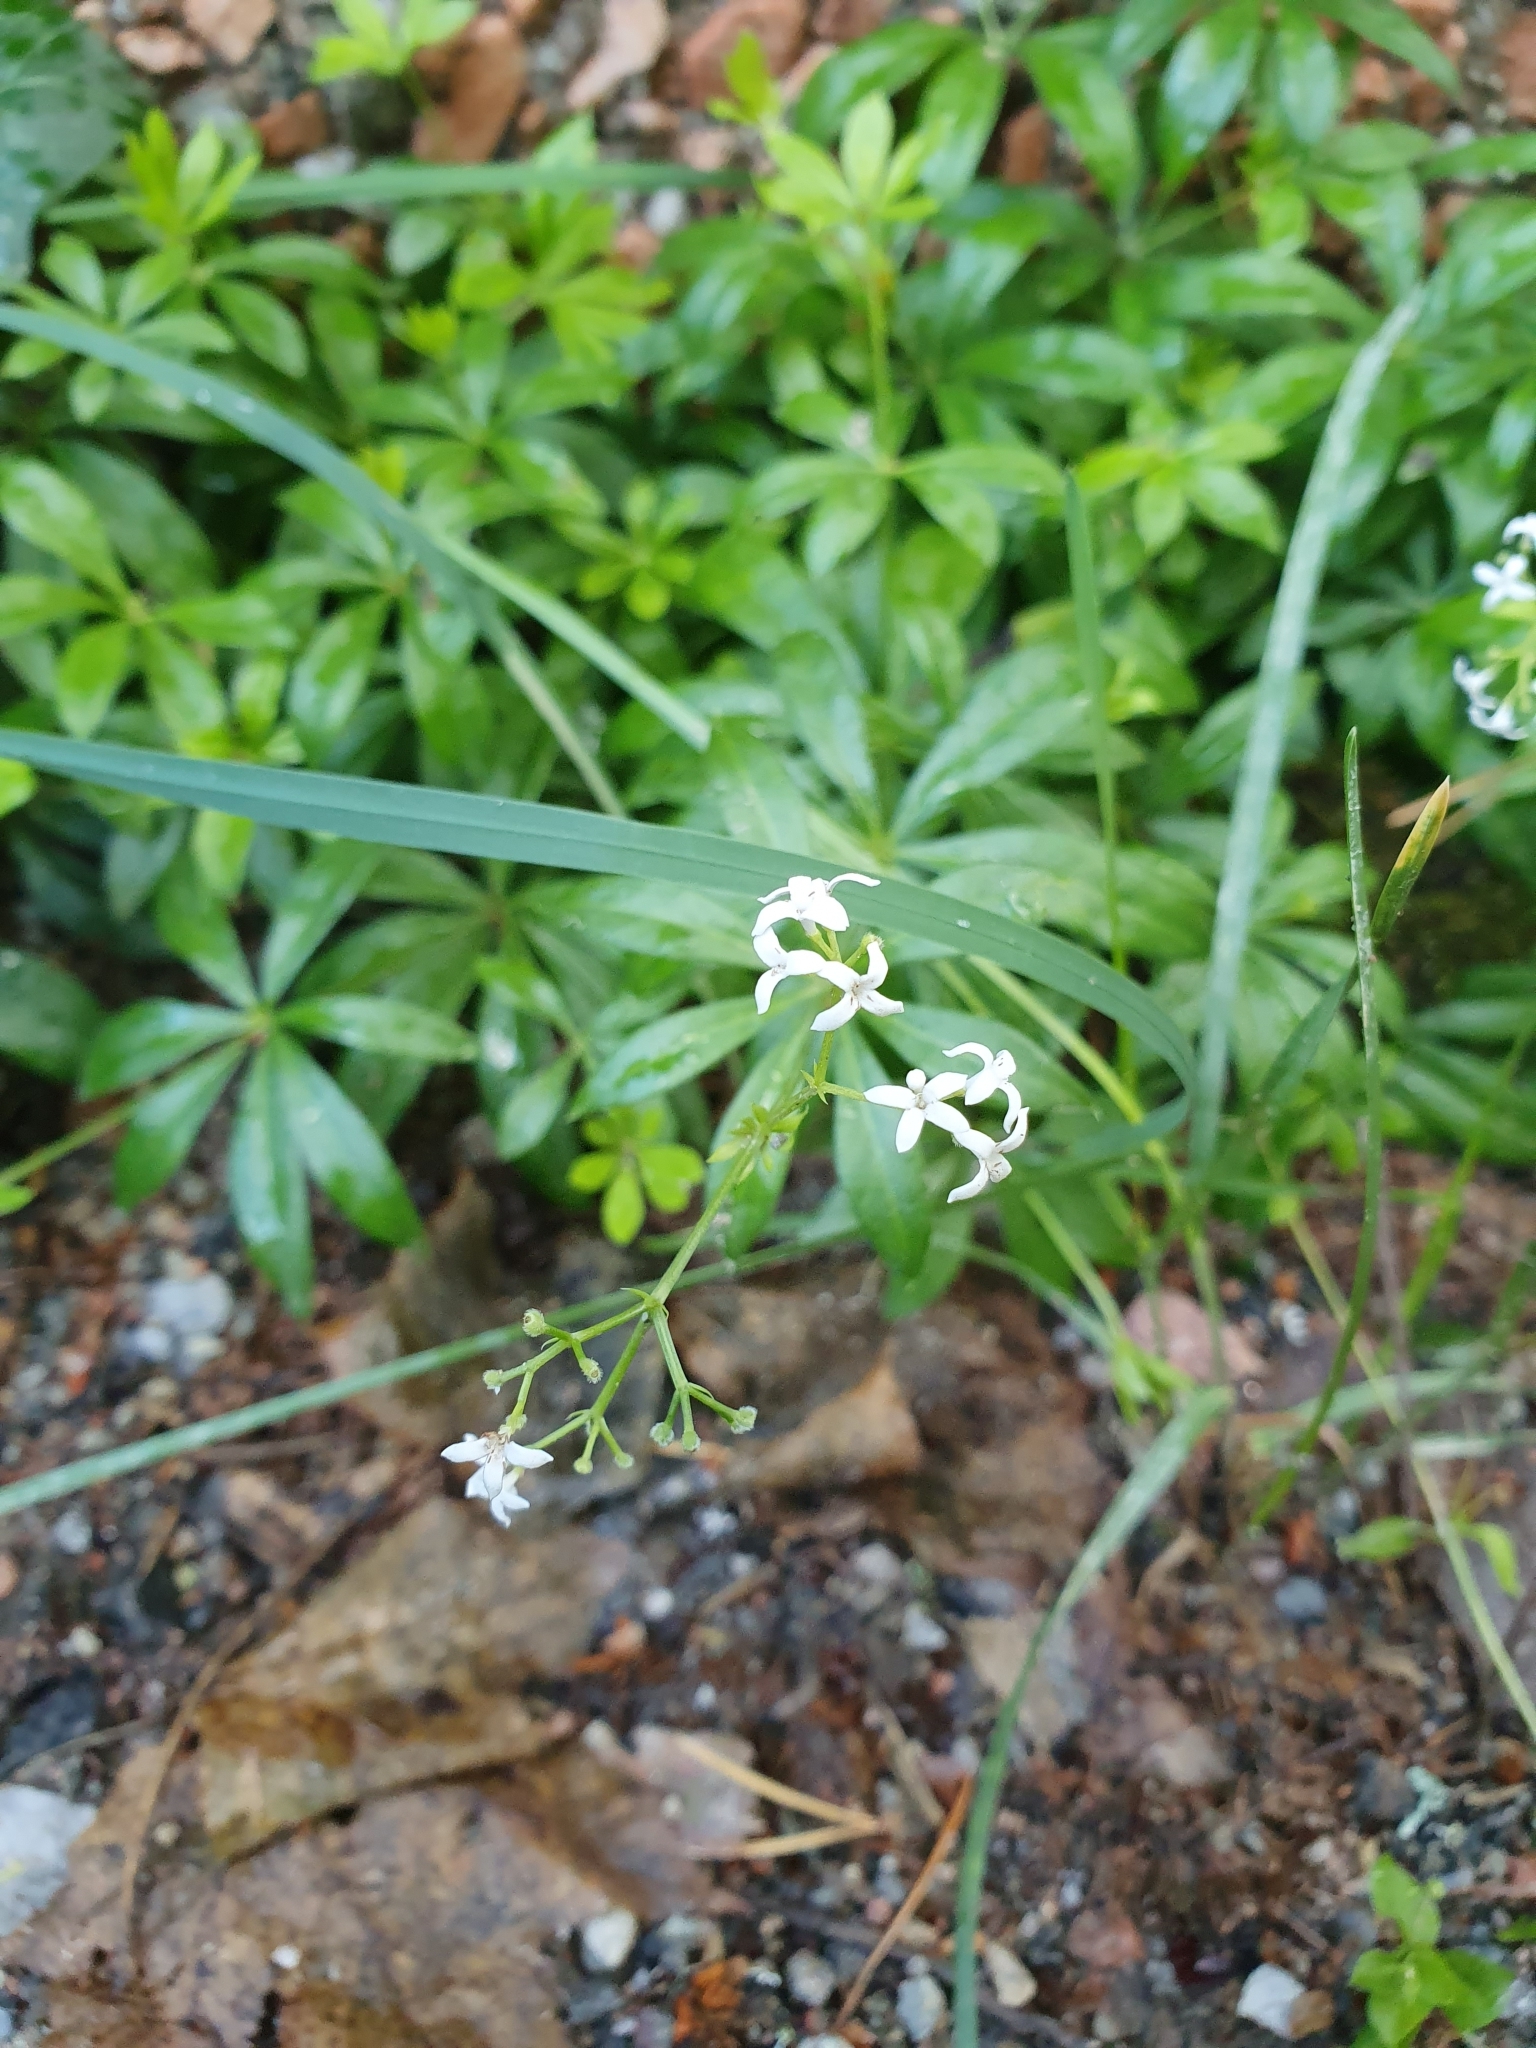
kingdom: Plantae
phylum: Tracheophyta
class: Magnoliopsida
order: Gentianales
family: Rubiaceae
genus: Galium
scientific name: Galium odoratum
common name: Sweet woodruff
